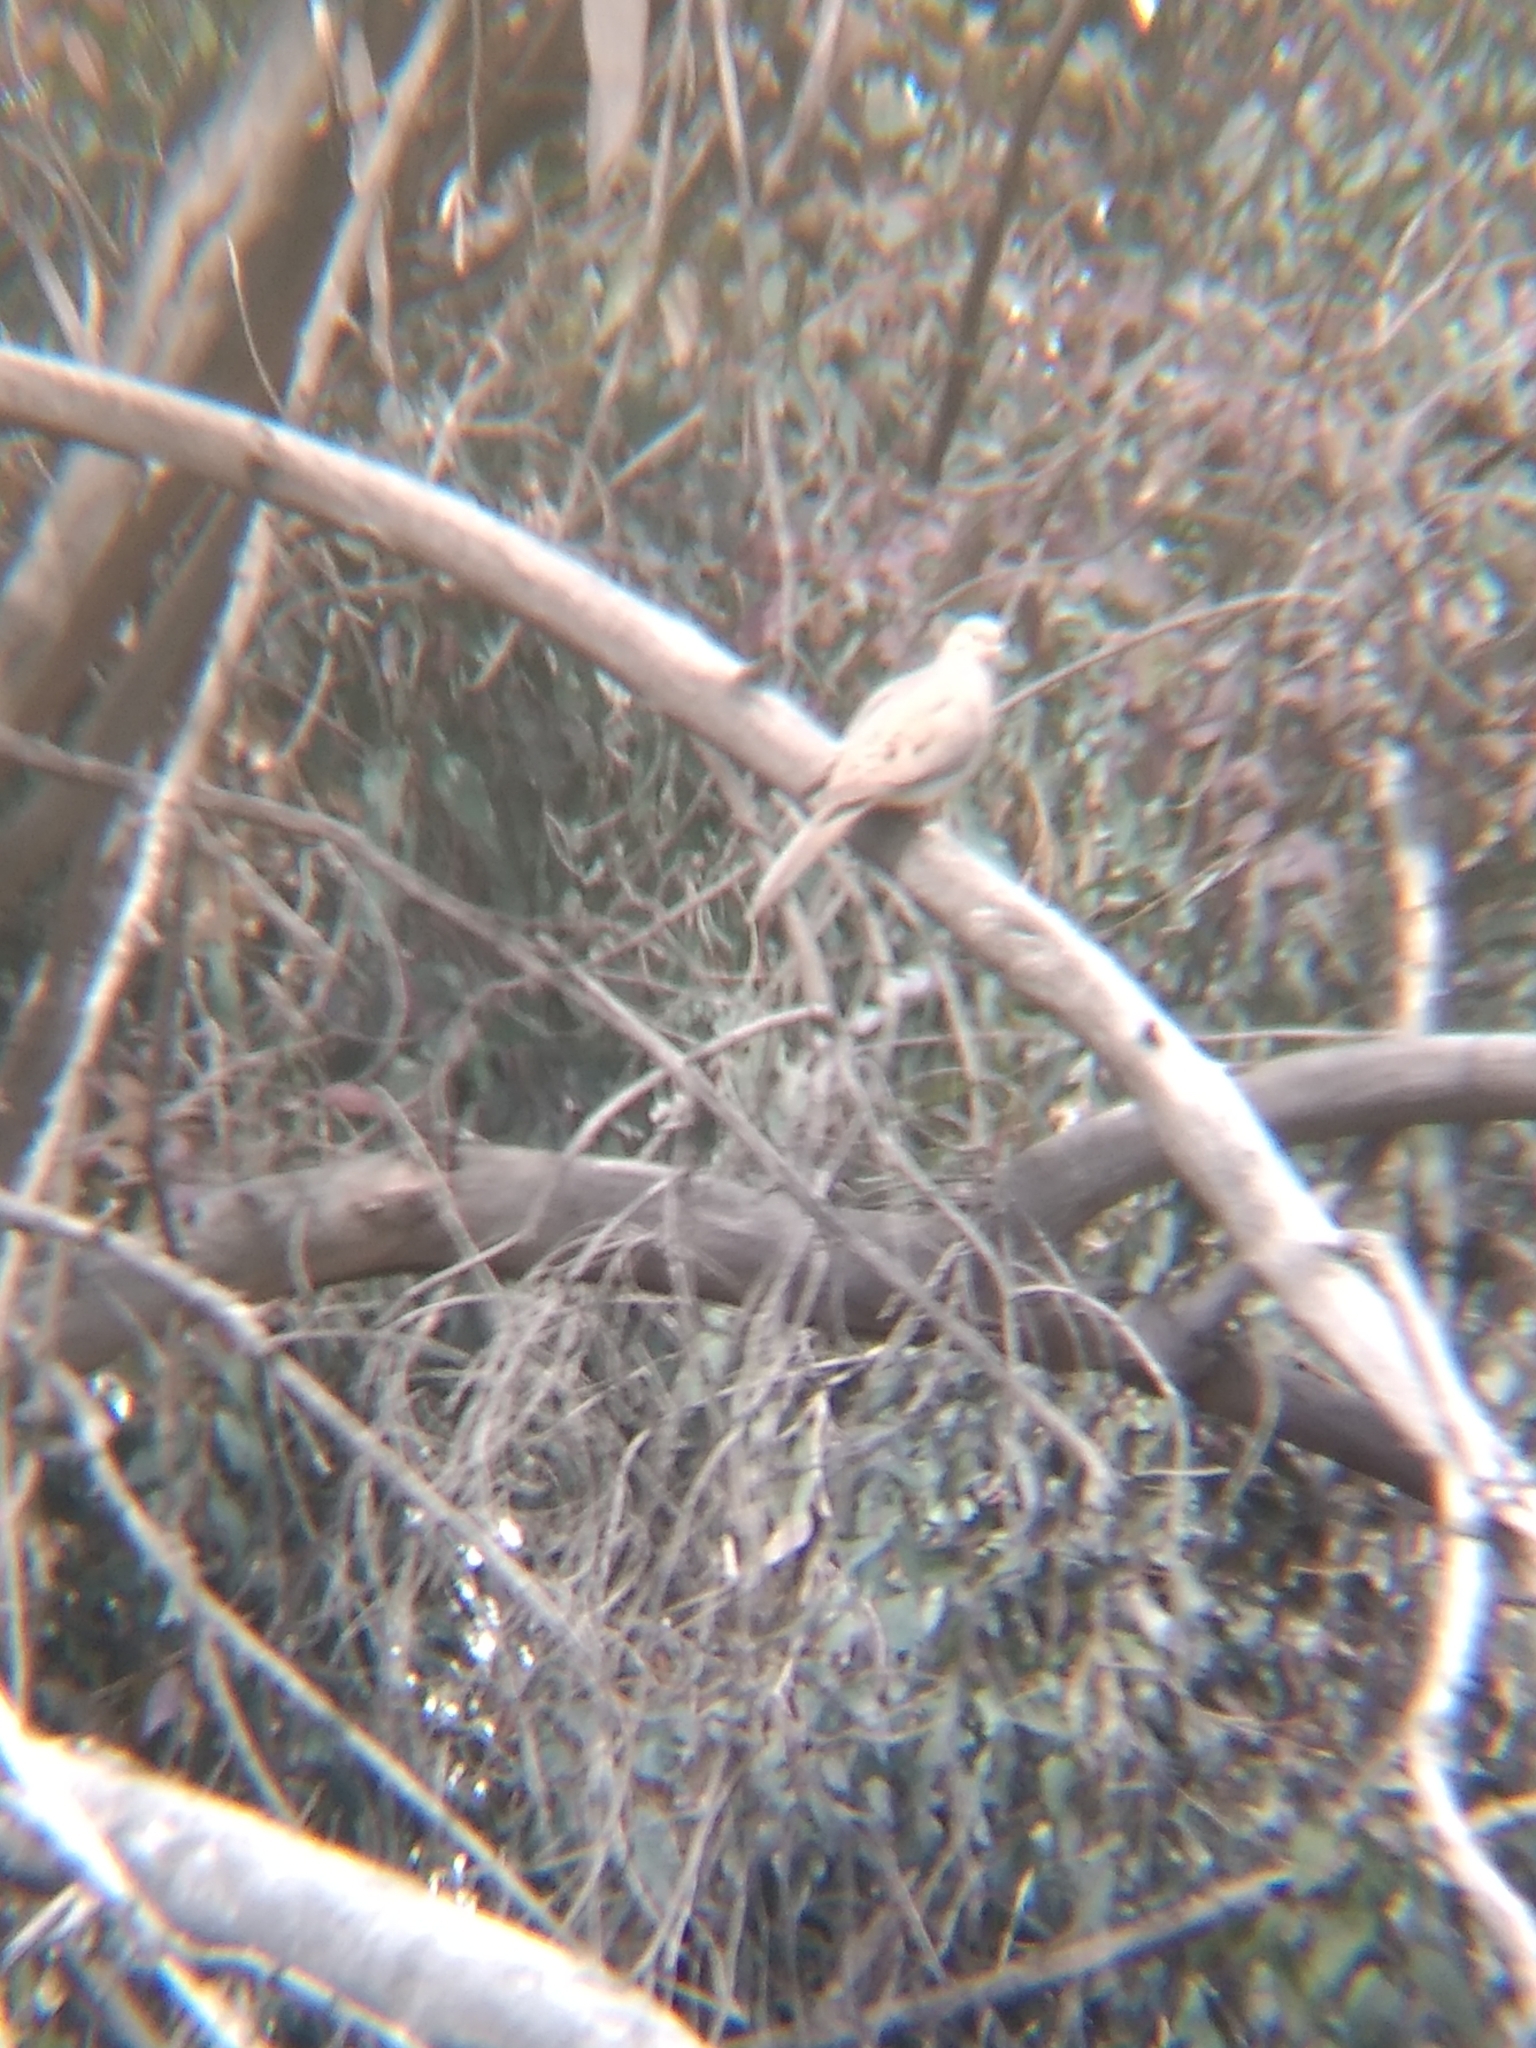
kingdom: Animalia
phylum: Chordata
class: Aves
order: Columbiformes
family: Columbidae
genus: Zenaida
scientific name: Zenaida macroura
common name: Mourning dove
